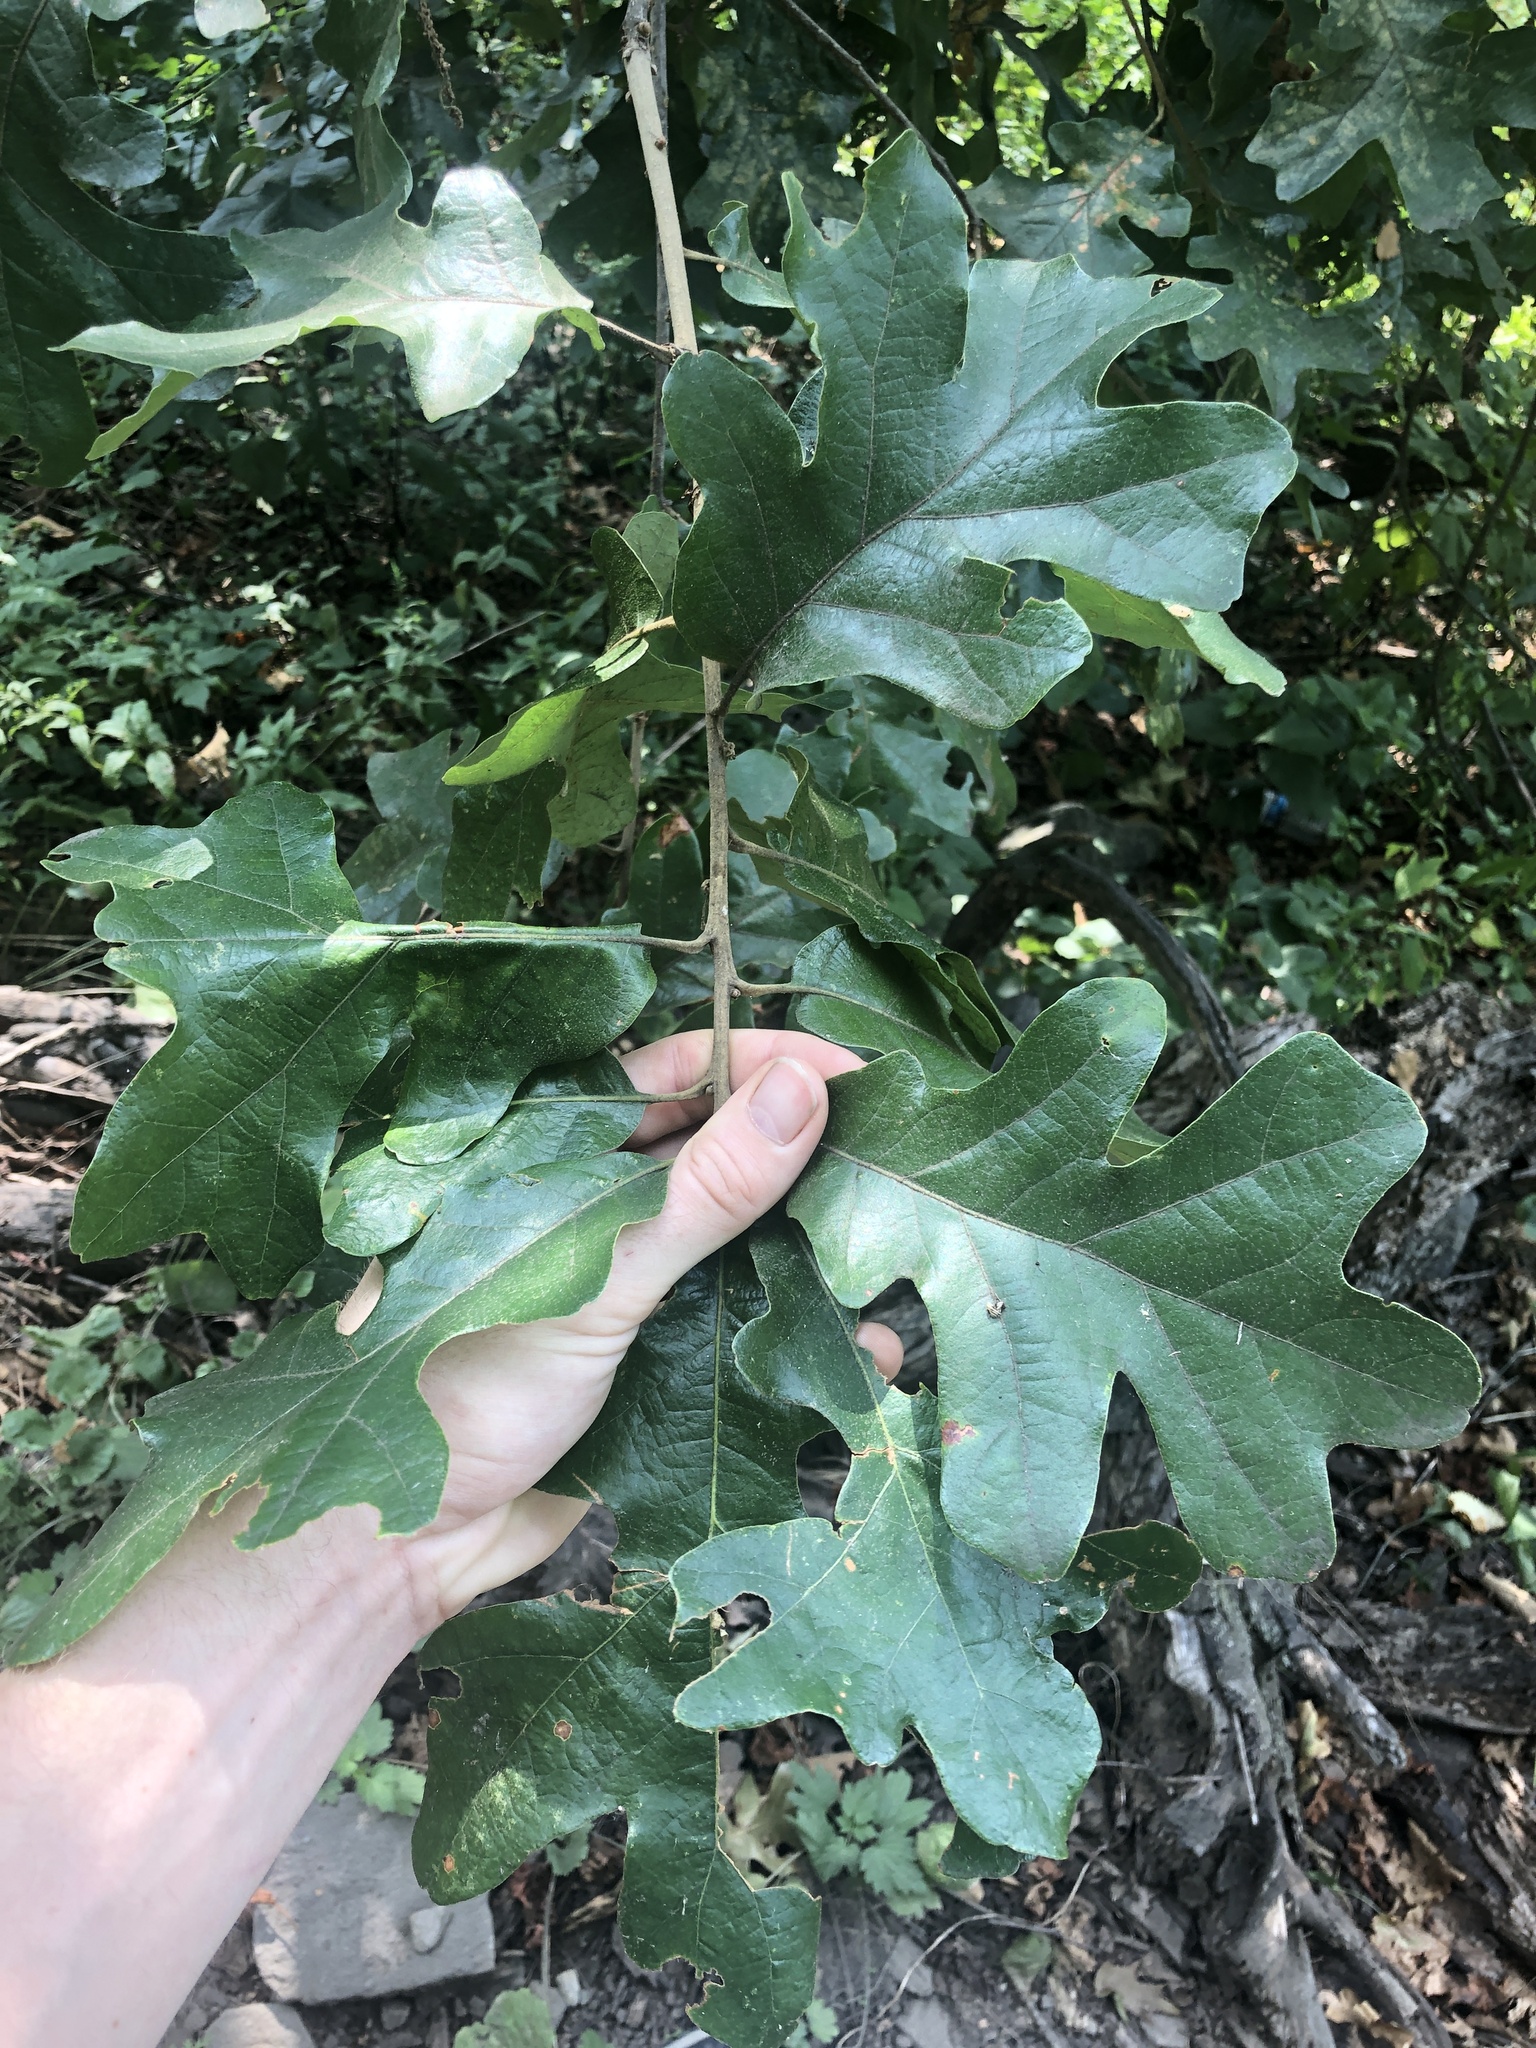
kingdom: Plantae
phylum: Tracheophyta
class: Magnoliopsida
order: Fagales
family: Fagaceae
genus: Quercus
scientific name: Quercus stellata
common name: Post oak
